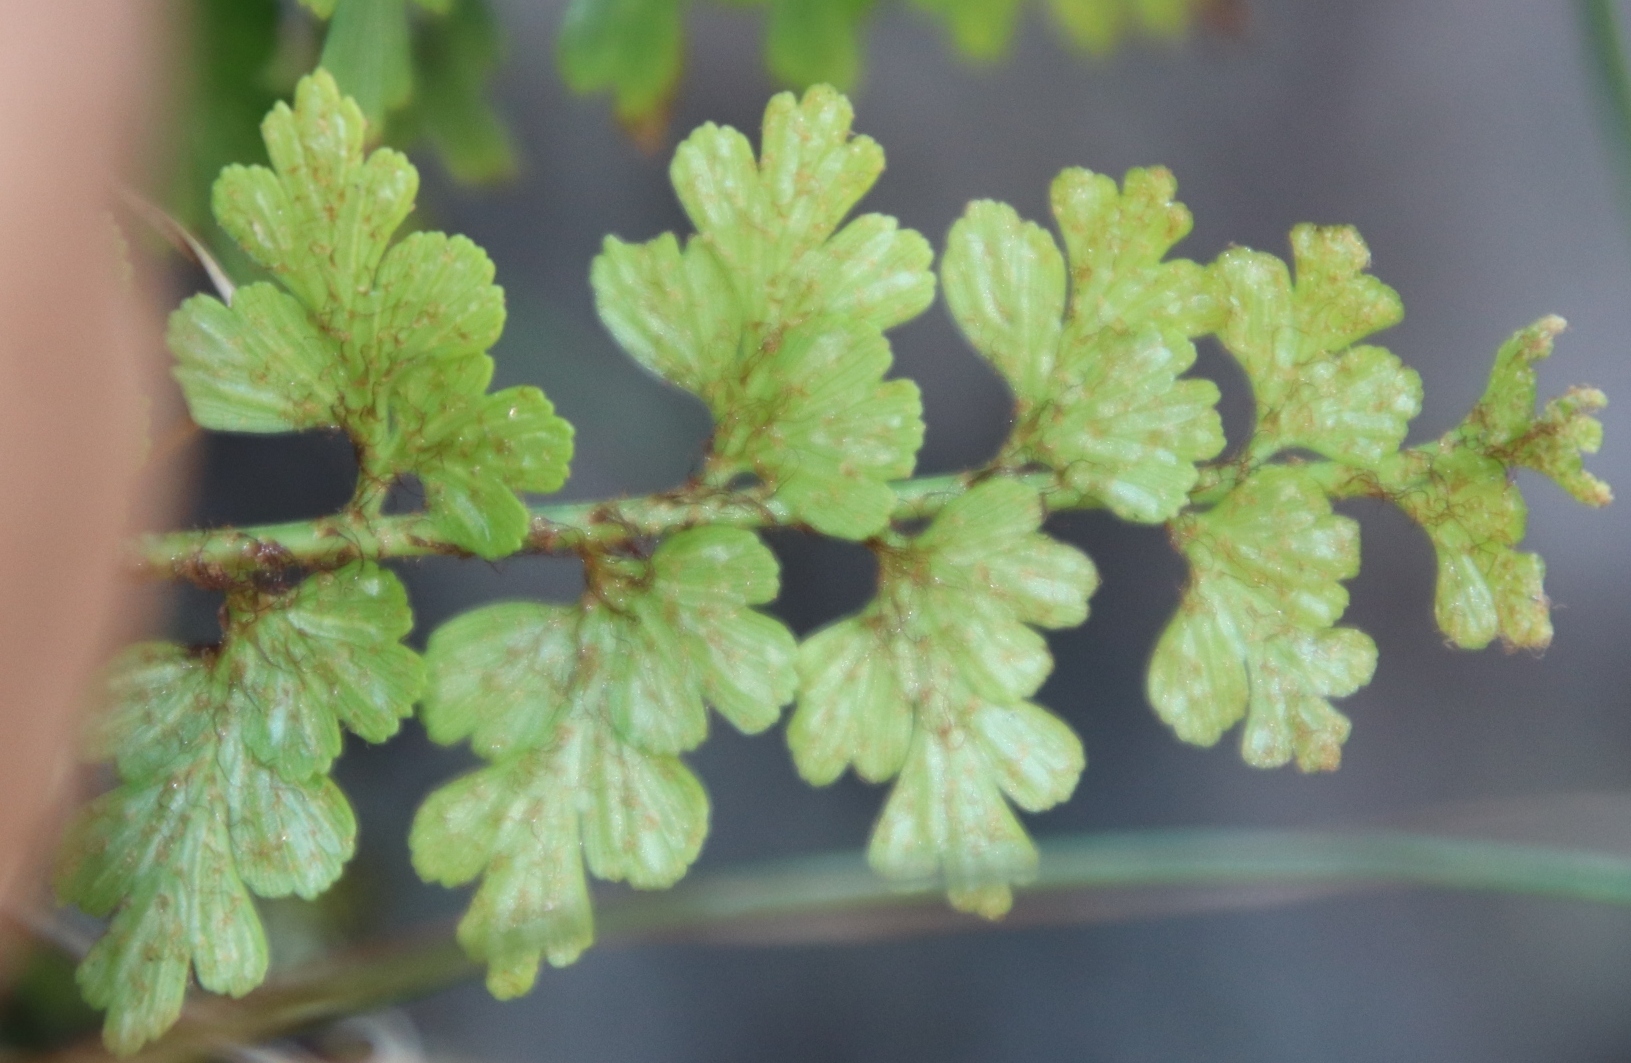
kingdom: Plantae
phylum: Tracheophyta
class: Polypodiopsida
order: Polypodiales
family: Aspleniaceae
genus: Asplenium
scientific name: Asplenium aethiopicum
